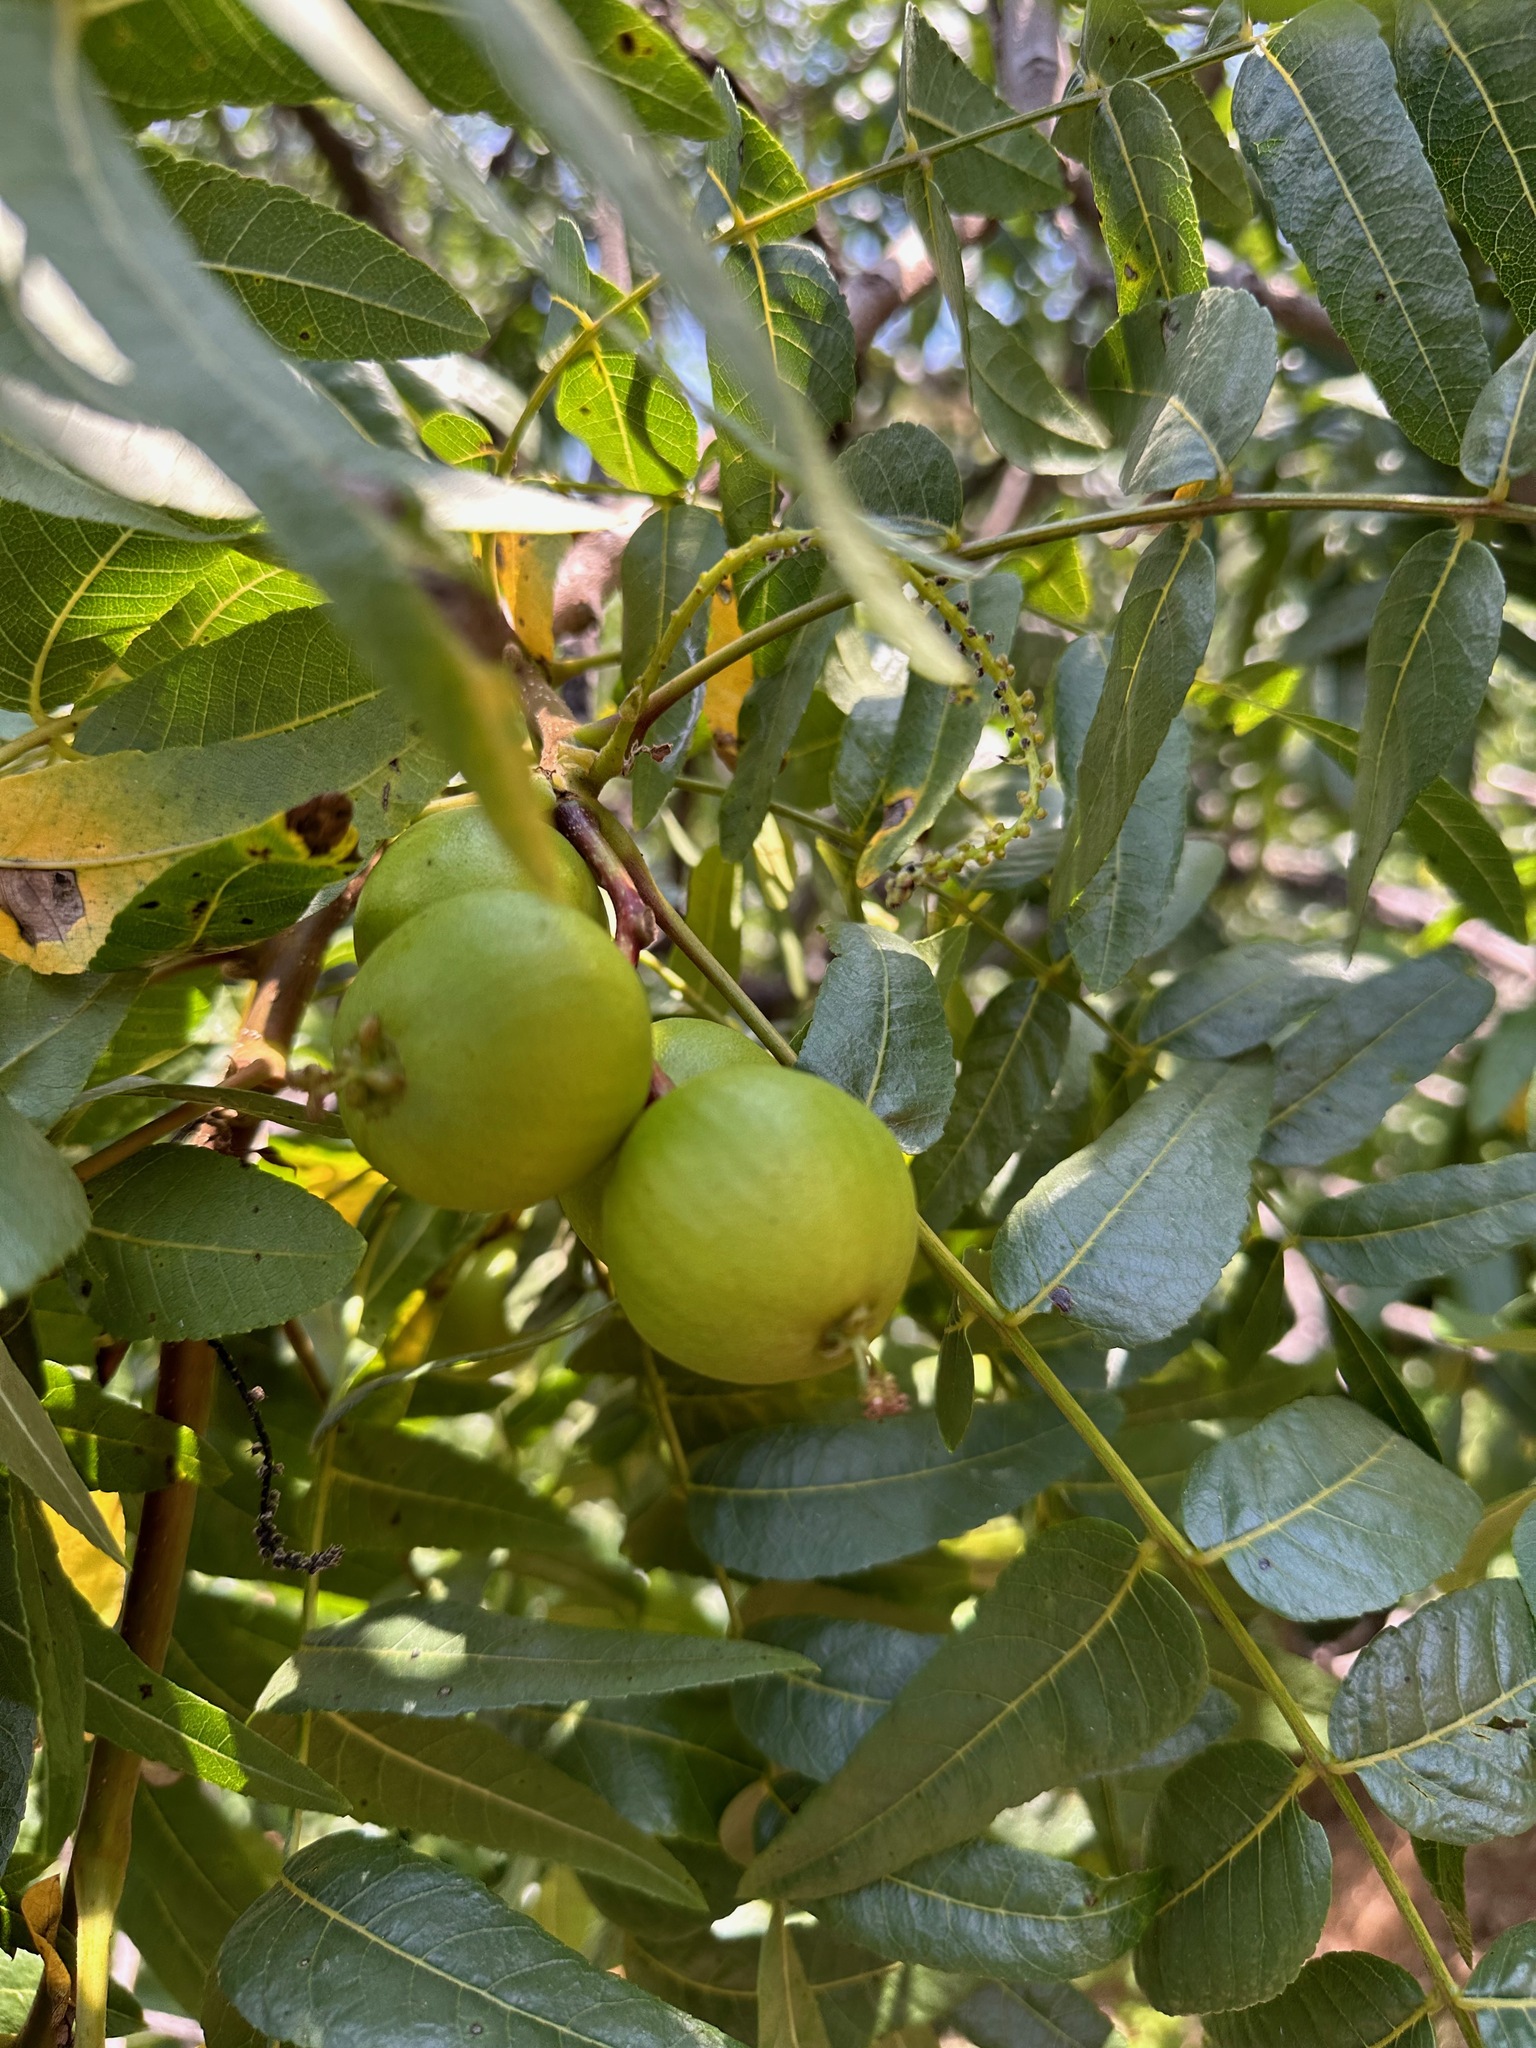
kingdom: Plantae
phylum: Tracheophyta
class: Magnoliopsida
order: Fagales
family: Juglandaceae
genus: Juglans
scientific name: Juglans californica
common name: Southern california black walnut
